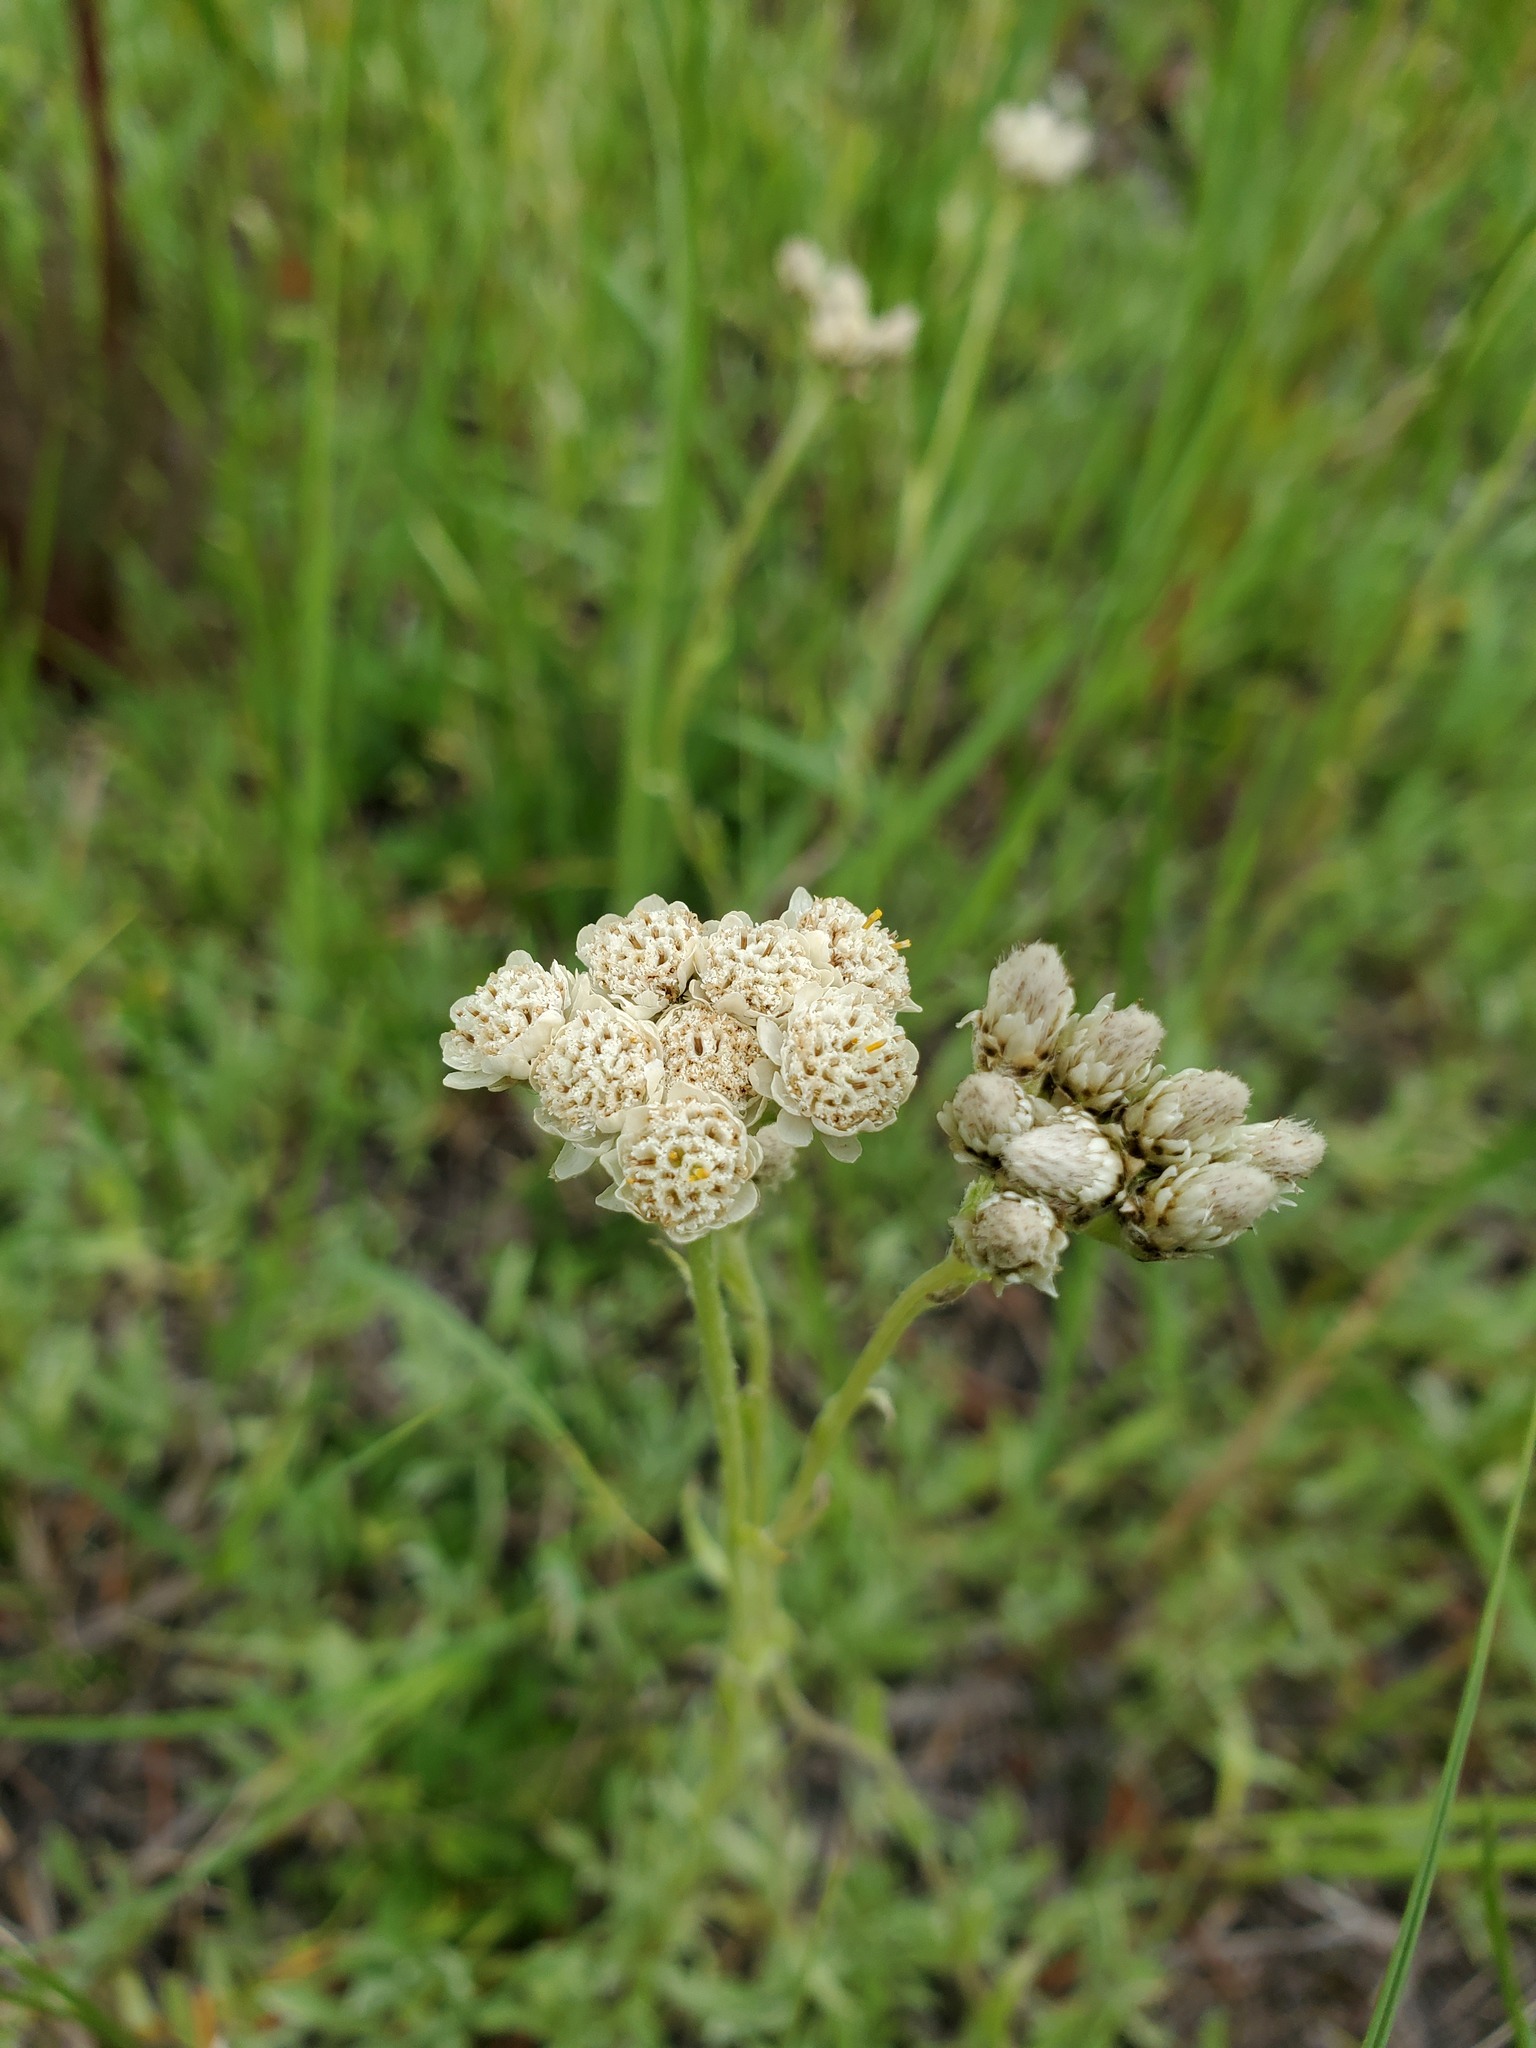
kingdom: Plantae
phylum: Tracheophyta
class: Magnoliopsida
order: Asterales
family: Asteraceae
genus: Antennaria
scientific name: Antennaria corymbosa
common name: Meadow pussytoes
